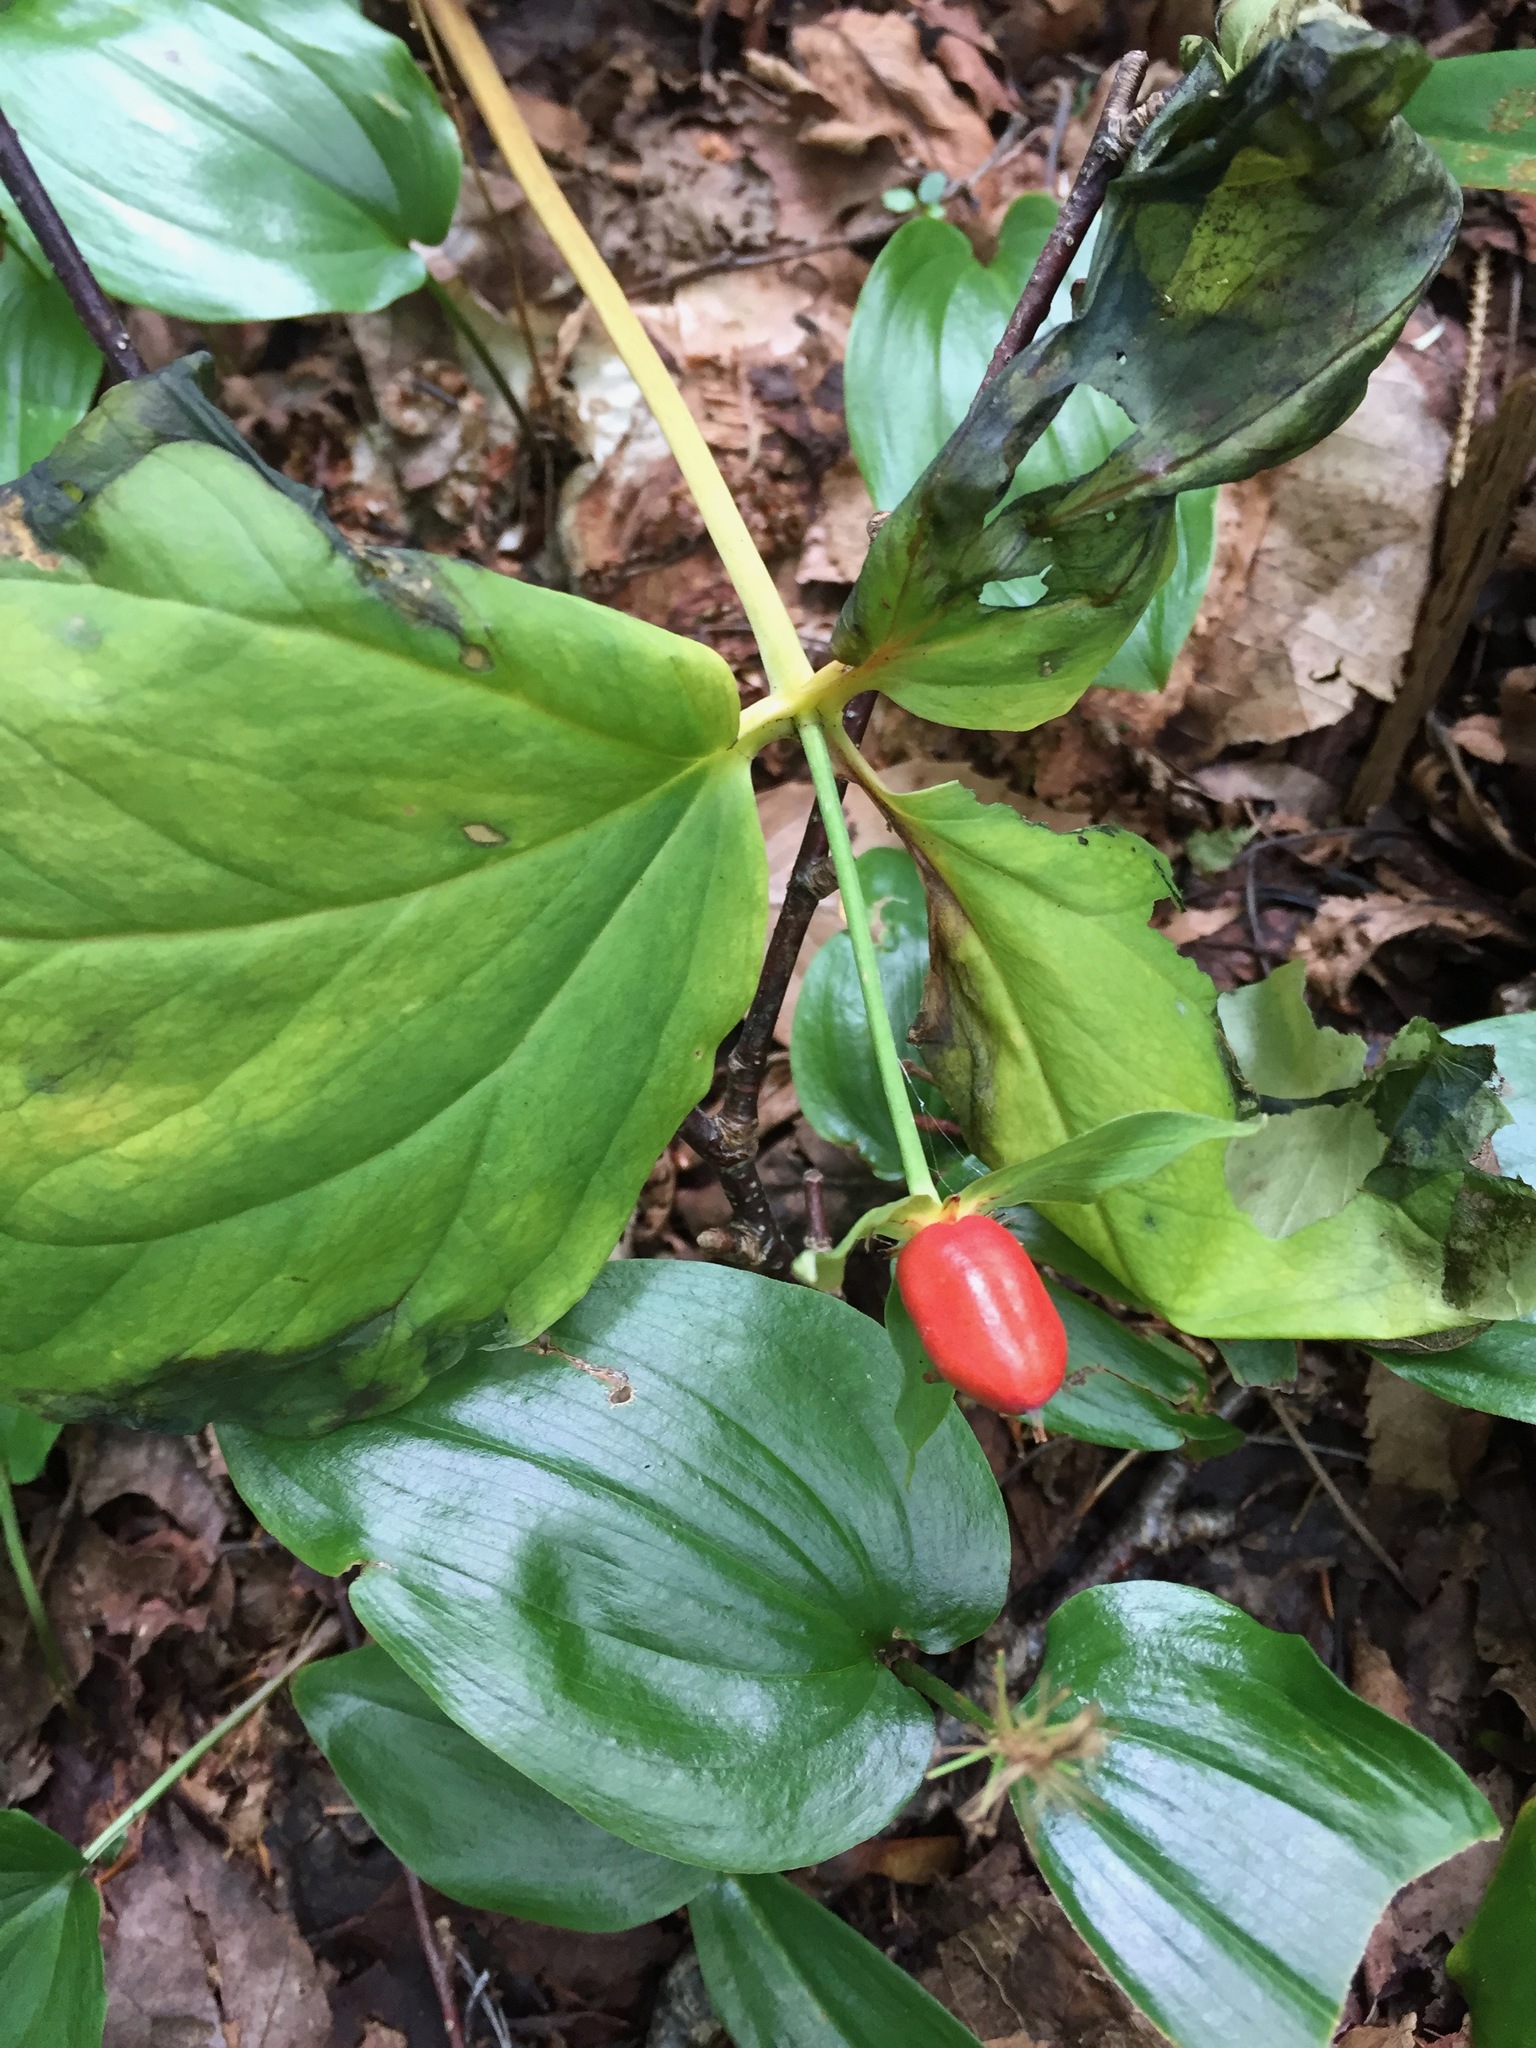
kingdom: Plantae
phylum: Tracheophyta
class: Liliopsida
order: Liliales
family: Melanthiaceae
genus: Trillium
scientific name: Trillium undulatum
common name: Paint trillium
